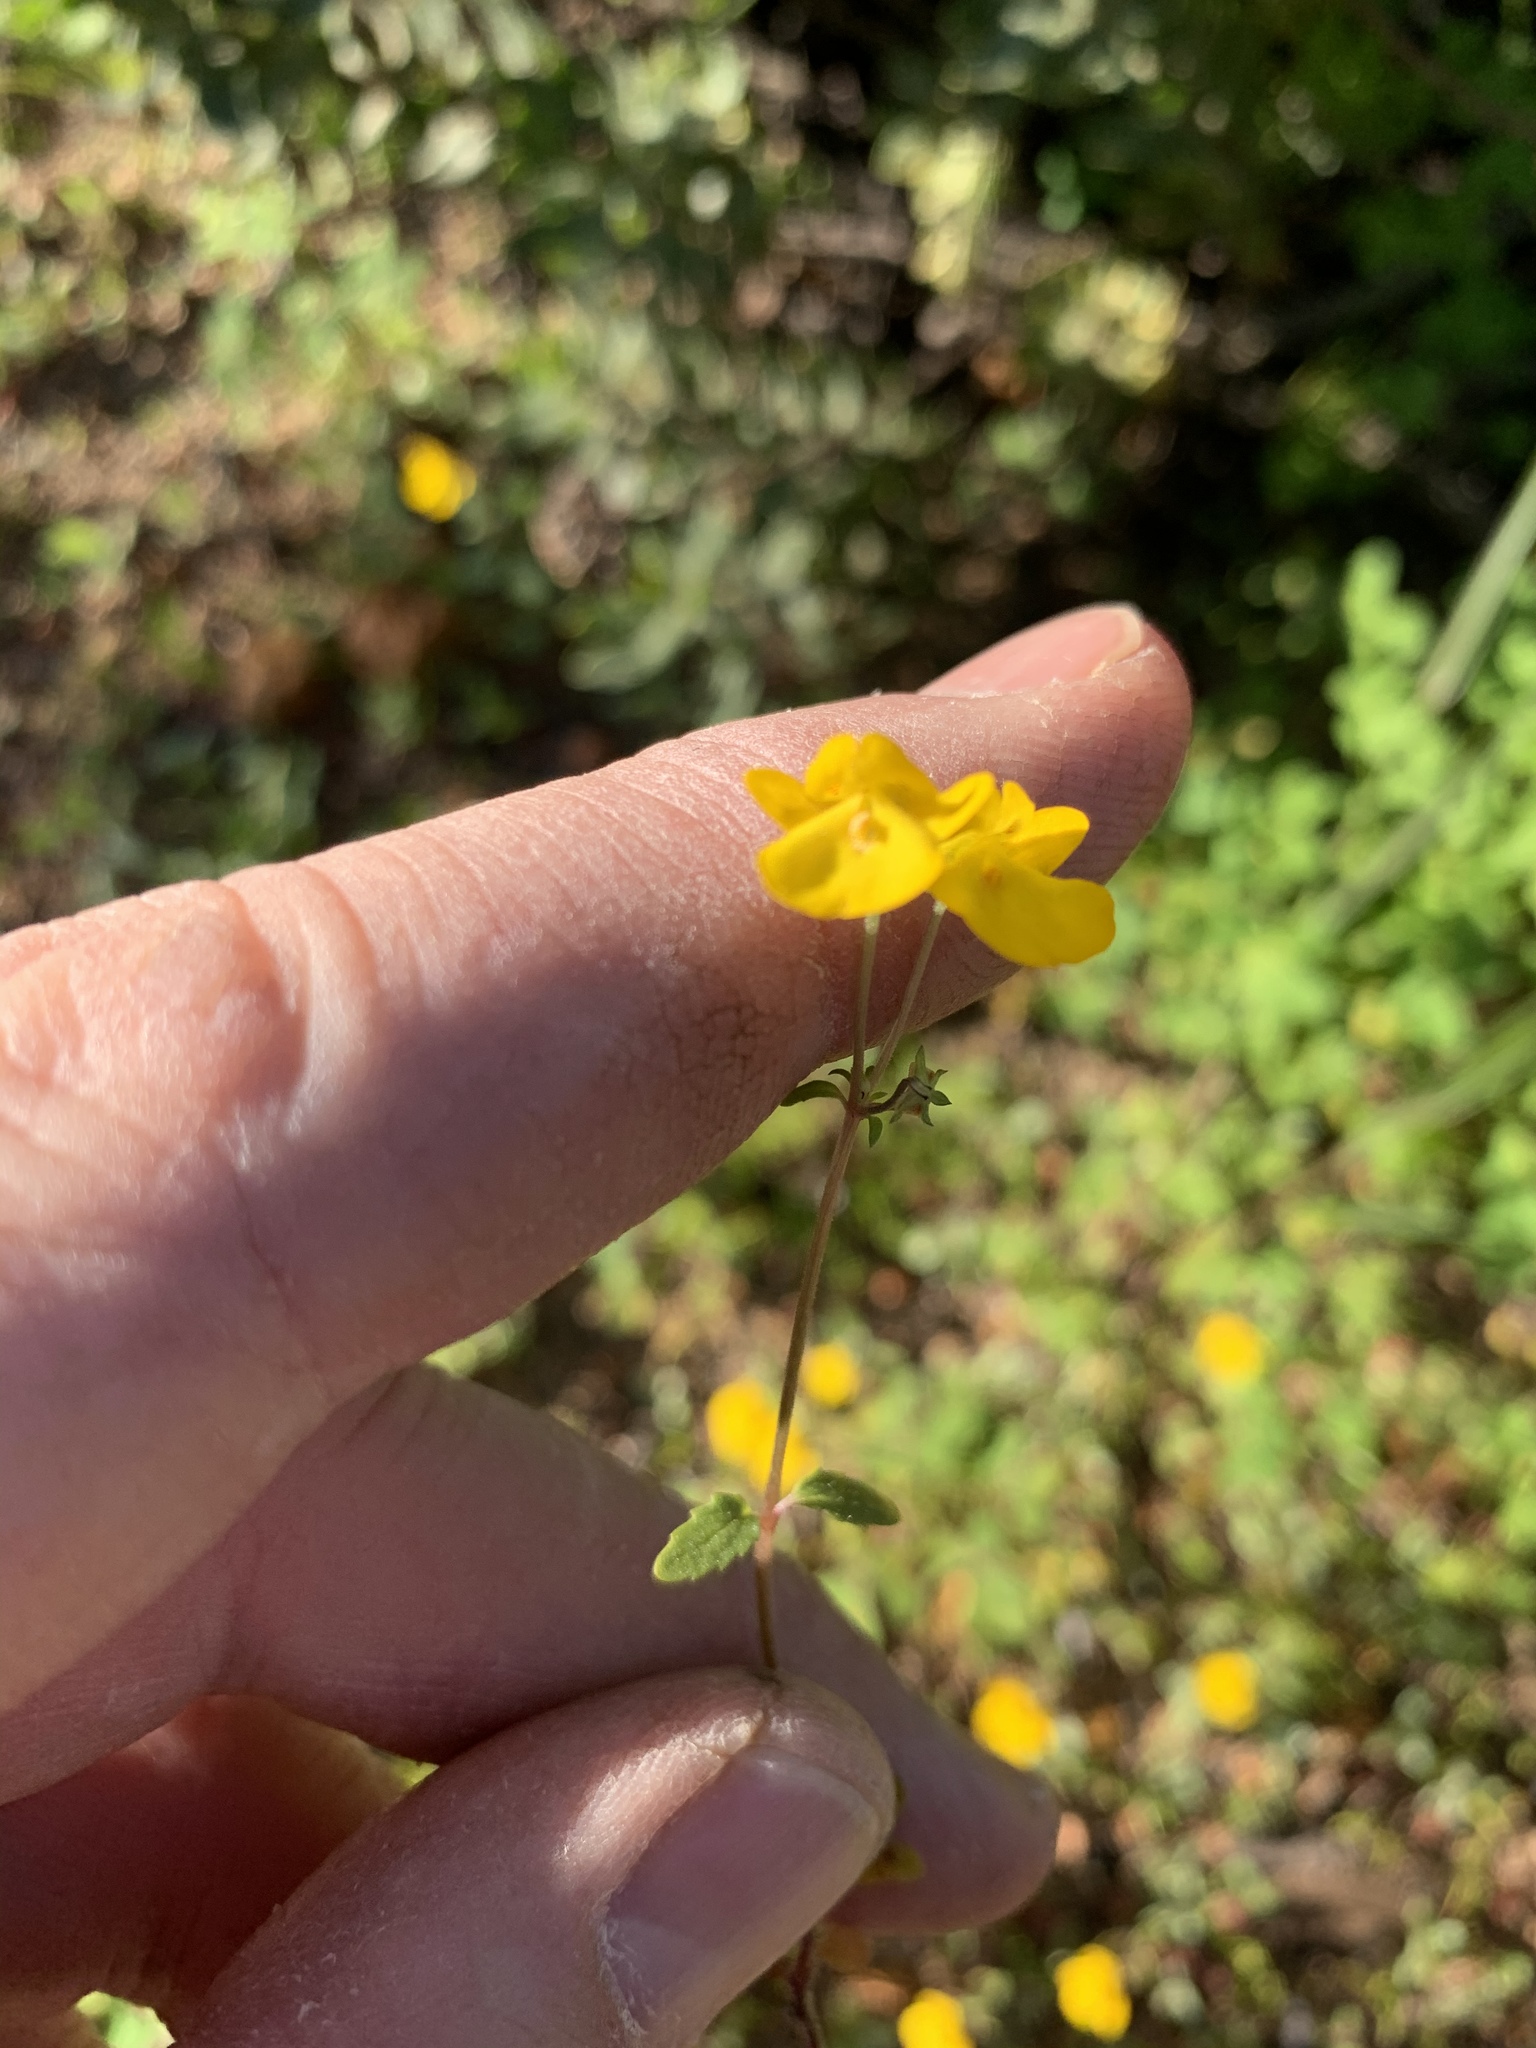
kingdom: Plantae
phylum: Tracheophyta
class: Magnoliopsida
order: Lamiales
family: Scrophulariaceae
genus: Hemimeris
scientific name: Hemimeris racemosa
